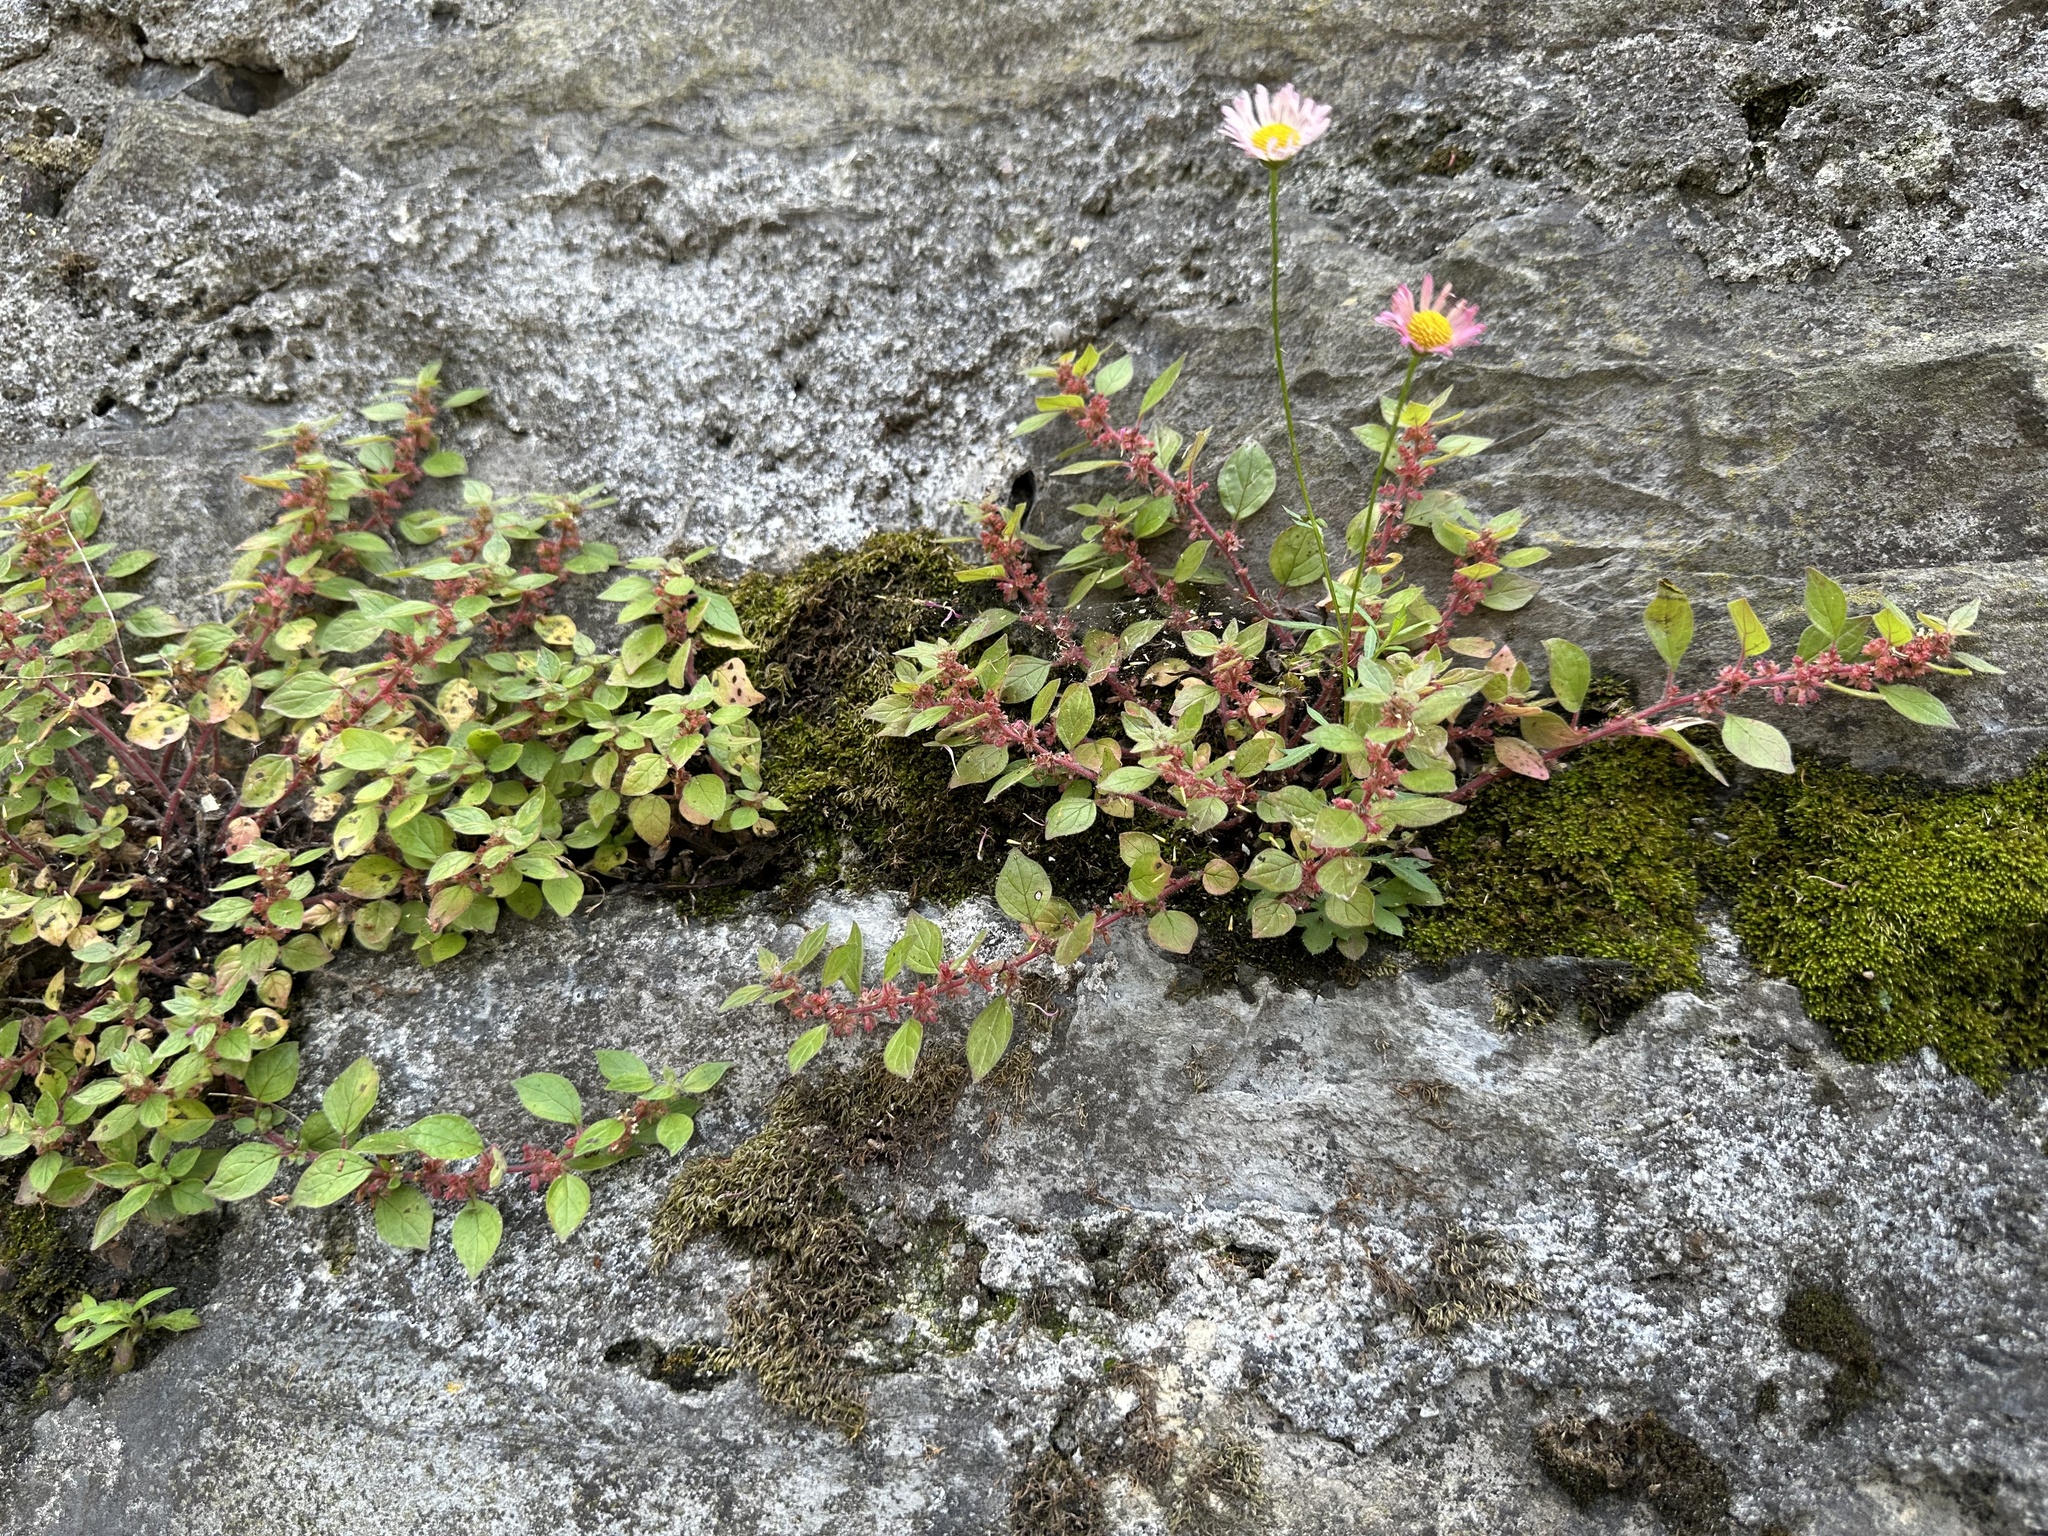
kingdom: Plantae
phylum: Tracheophyta
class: Magnoliopsida
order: Rosales
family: Urticaceae
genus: Parietaria
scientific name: Parietaria judaica
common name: Pellitory-of-the-wall
